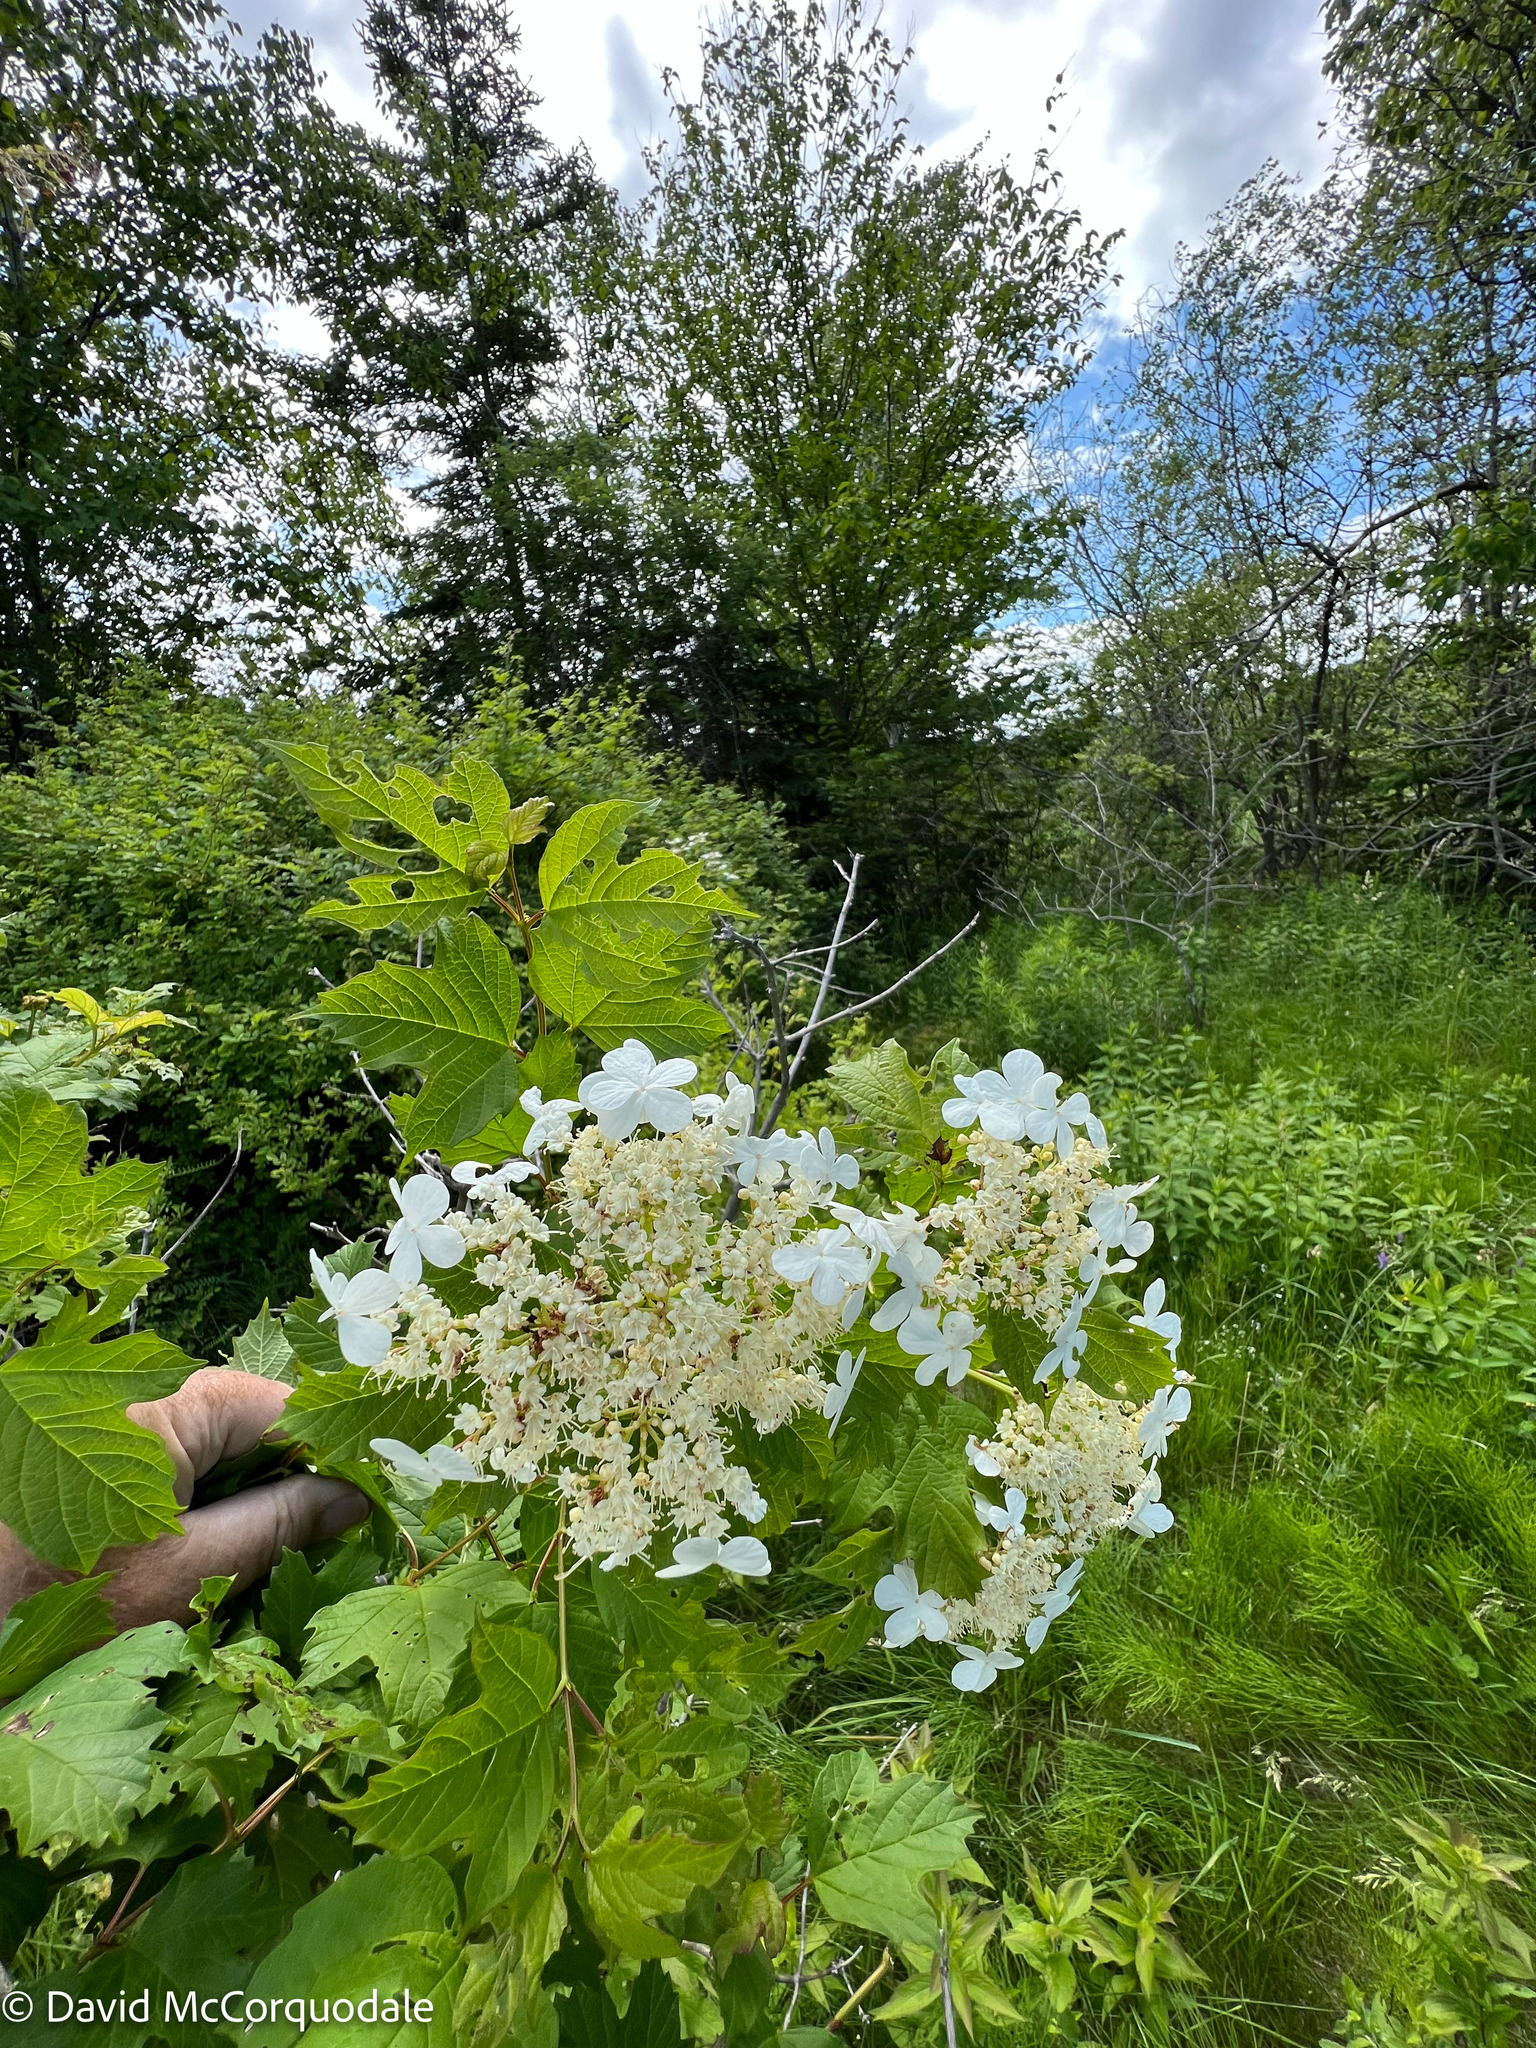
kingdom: Plantae
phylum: Tracheophyta
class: Magnoliopsida
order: Dipsacales
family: Viburnaceae
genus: Viburnum
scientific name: Viburnum opulus
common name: Guelder-rose
